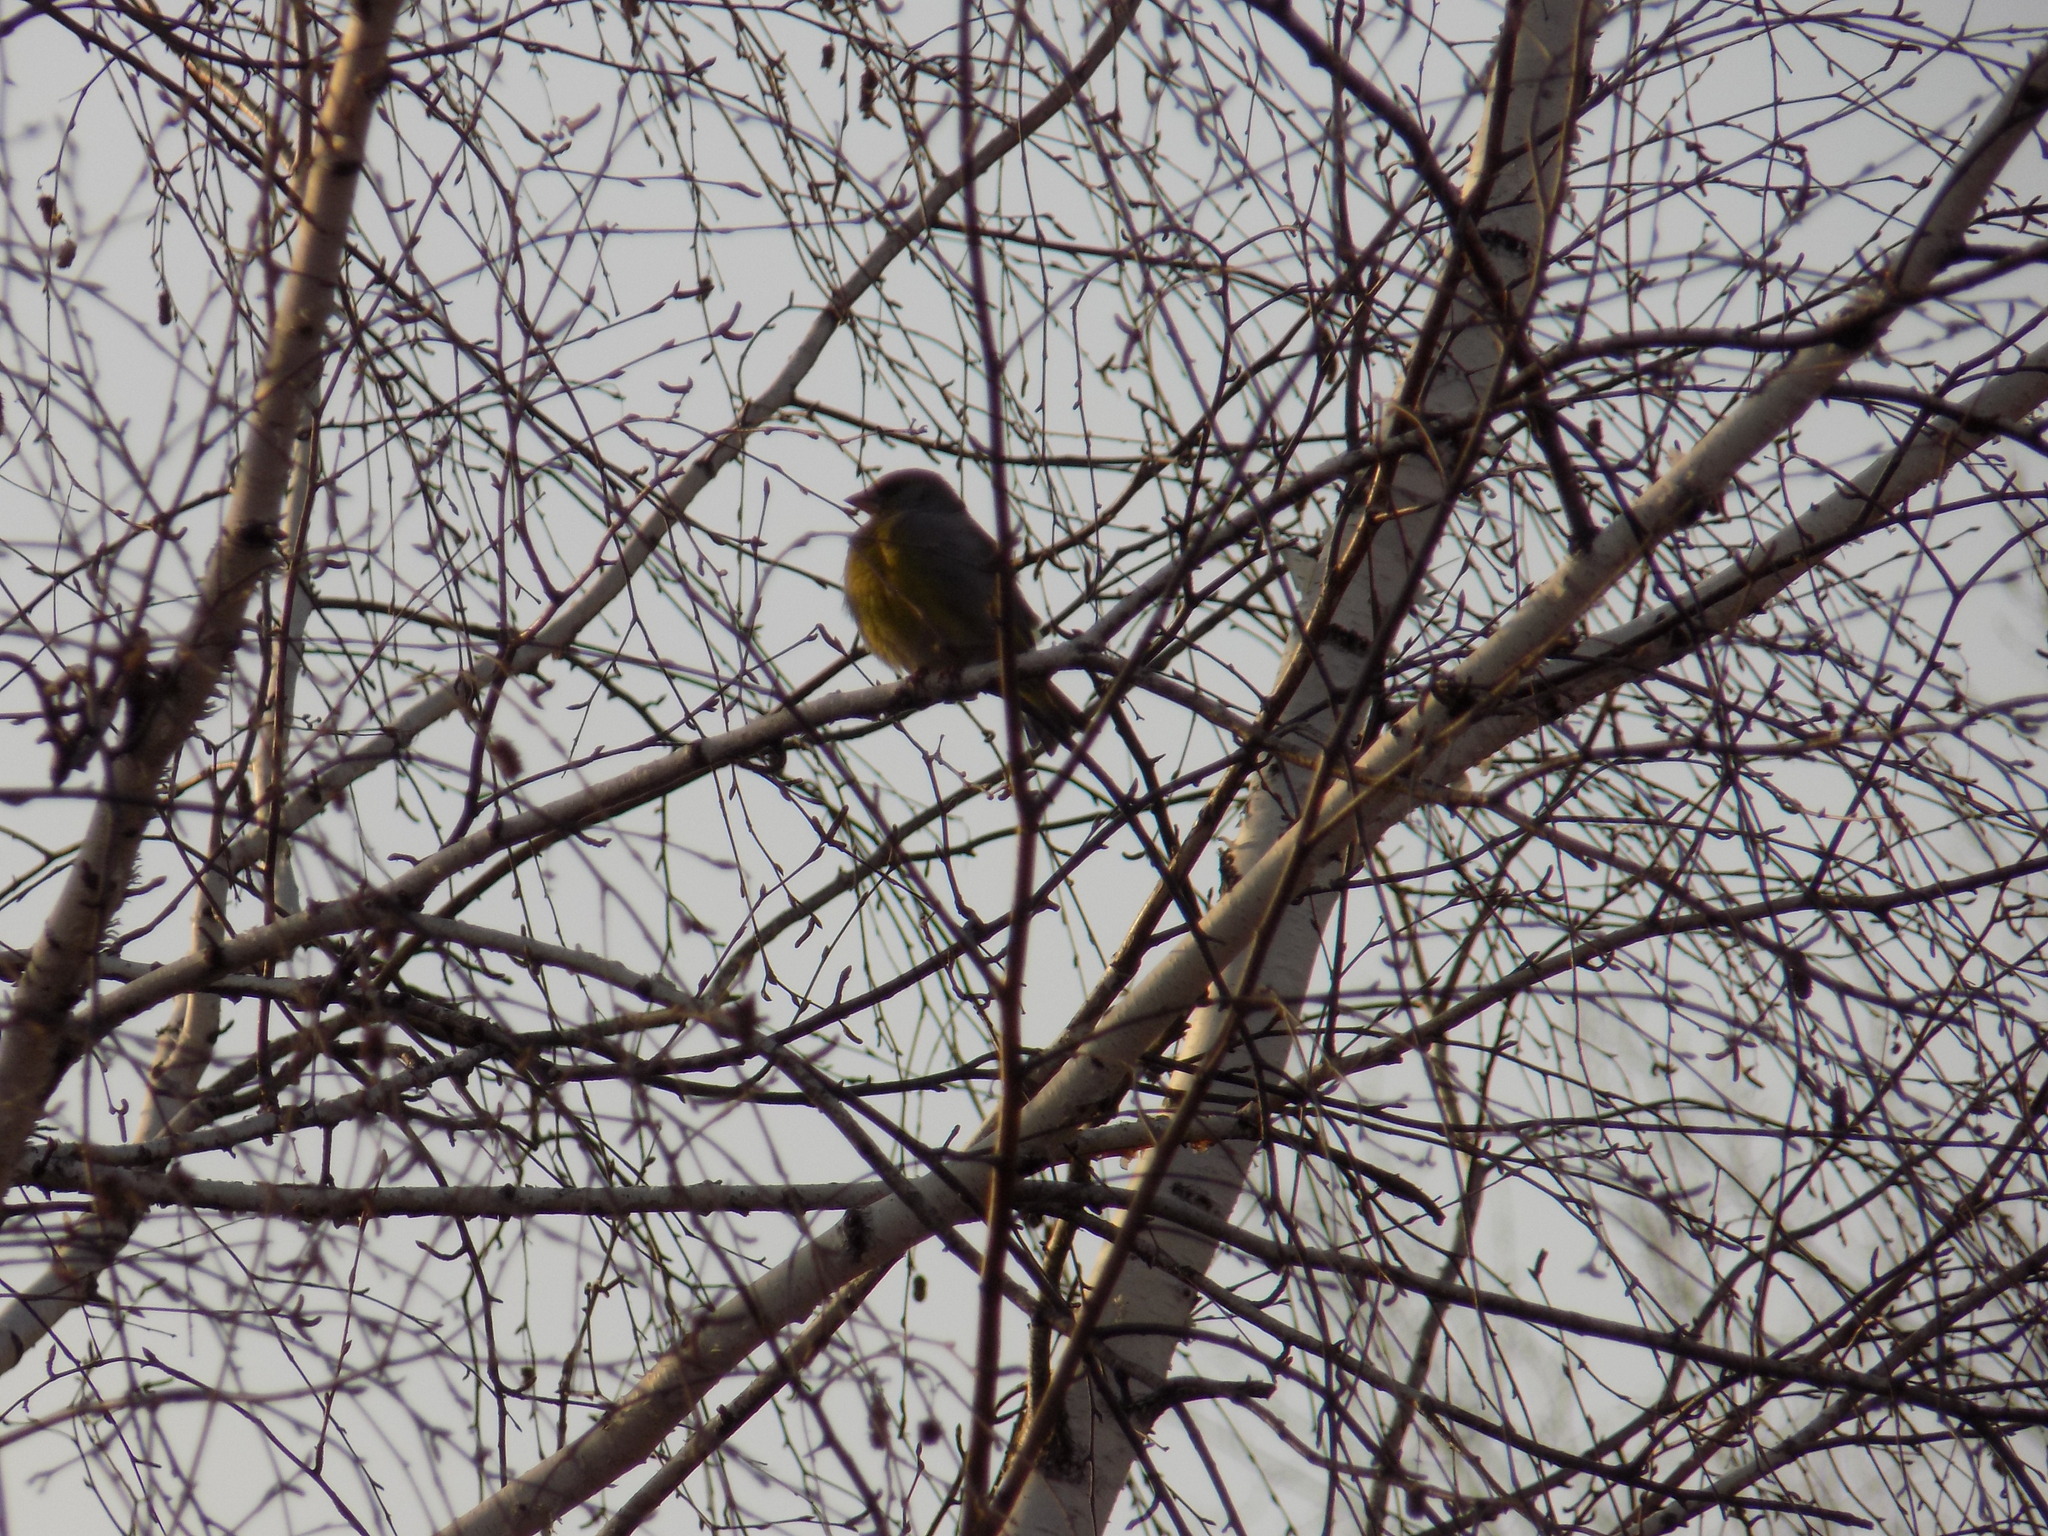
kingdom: Plantae
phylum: Tracheophyta
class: Liliopsida
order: Poales
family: Poaceae
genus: Chloris
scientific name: Chloris chloris
